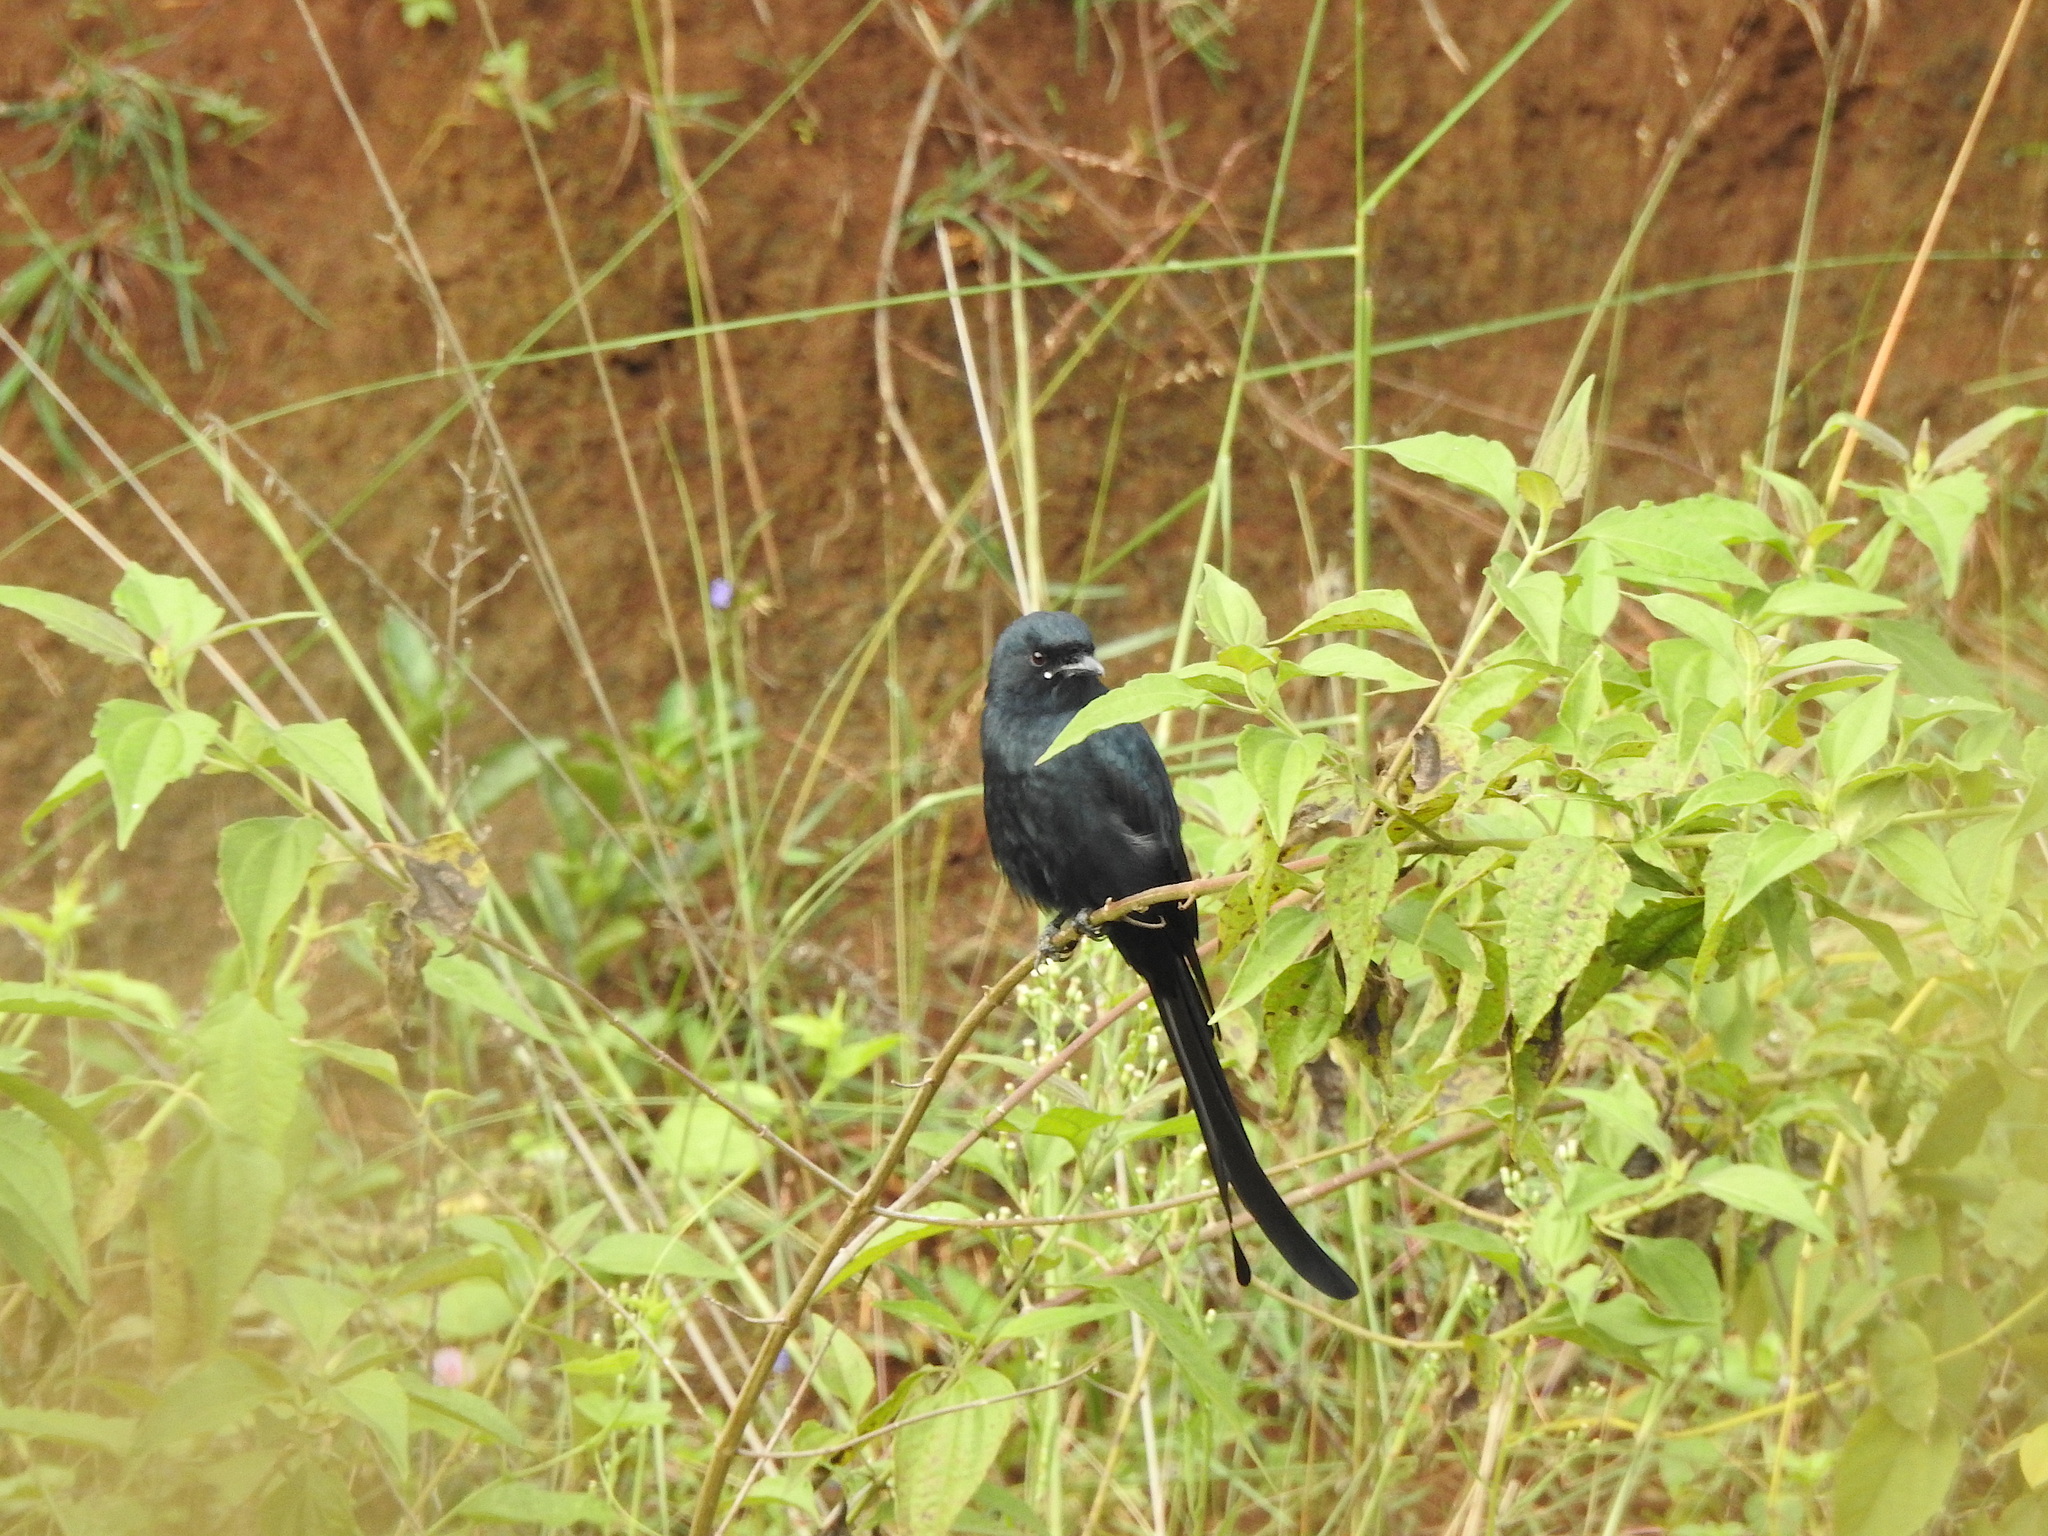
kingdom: Animalia
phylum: Chordata
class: Aves
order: Passeriformes
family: Dicruridae
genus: Dicrurus
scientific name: Dicrurus macrocercus
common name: Black drongo
